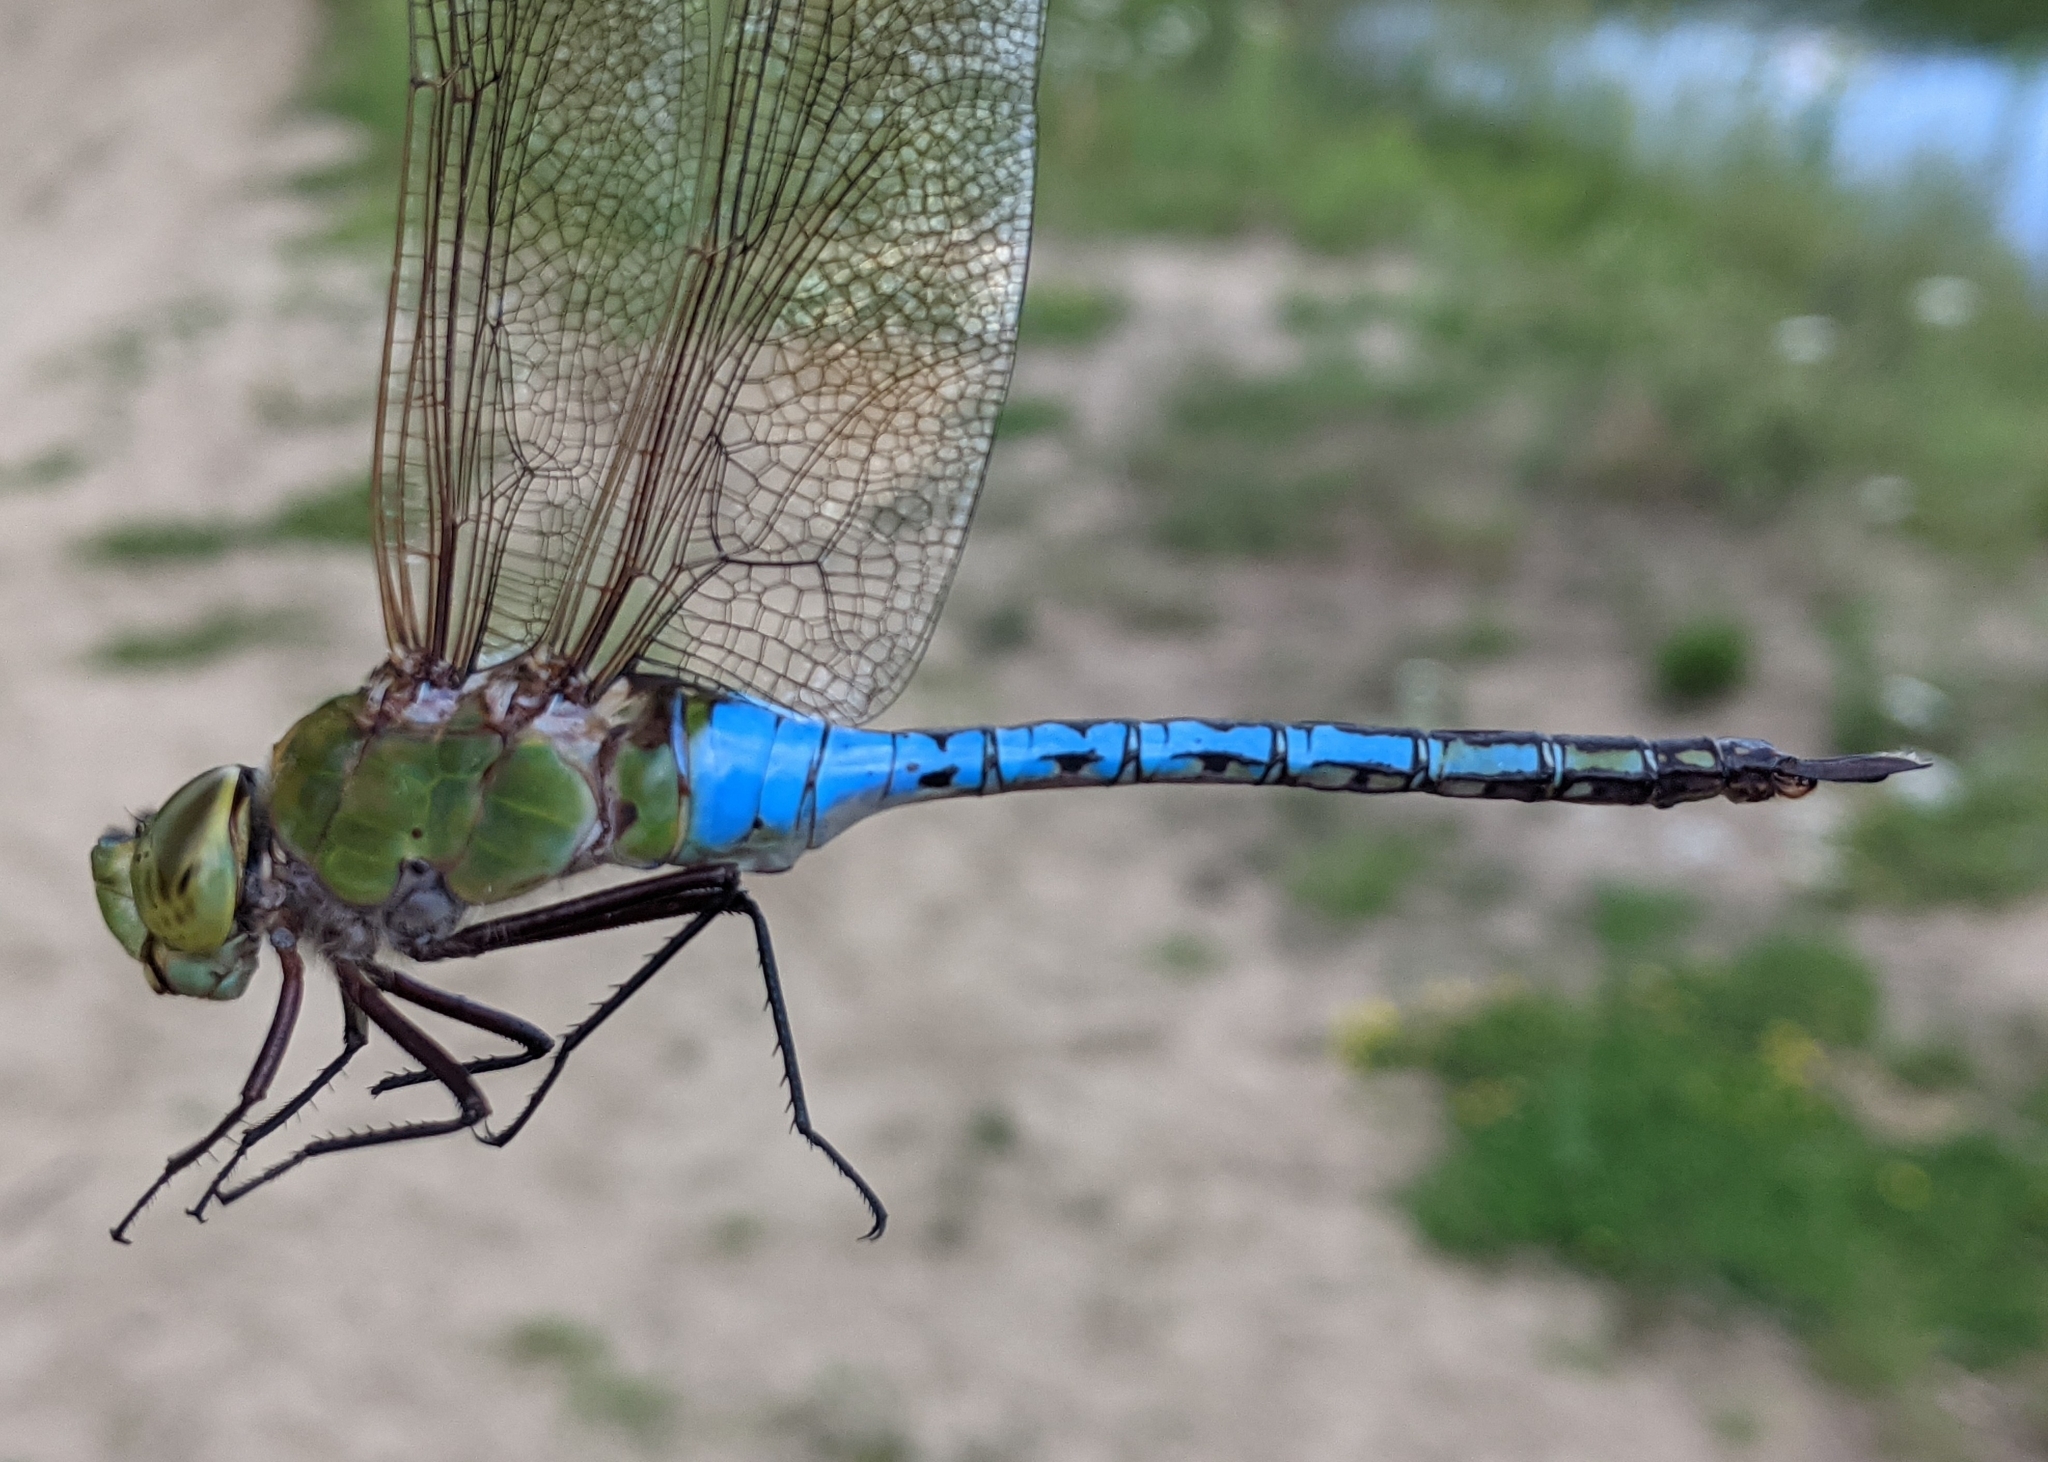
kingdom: Animalia
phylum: Arthropoda
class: Insecta
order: Odonata
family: Aeshnidae
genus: Anax
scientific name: Anax junius
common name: Common green darner
